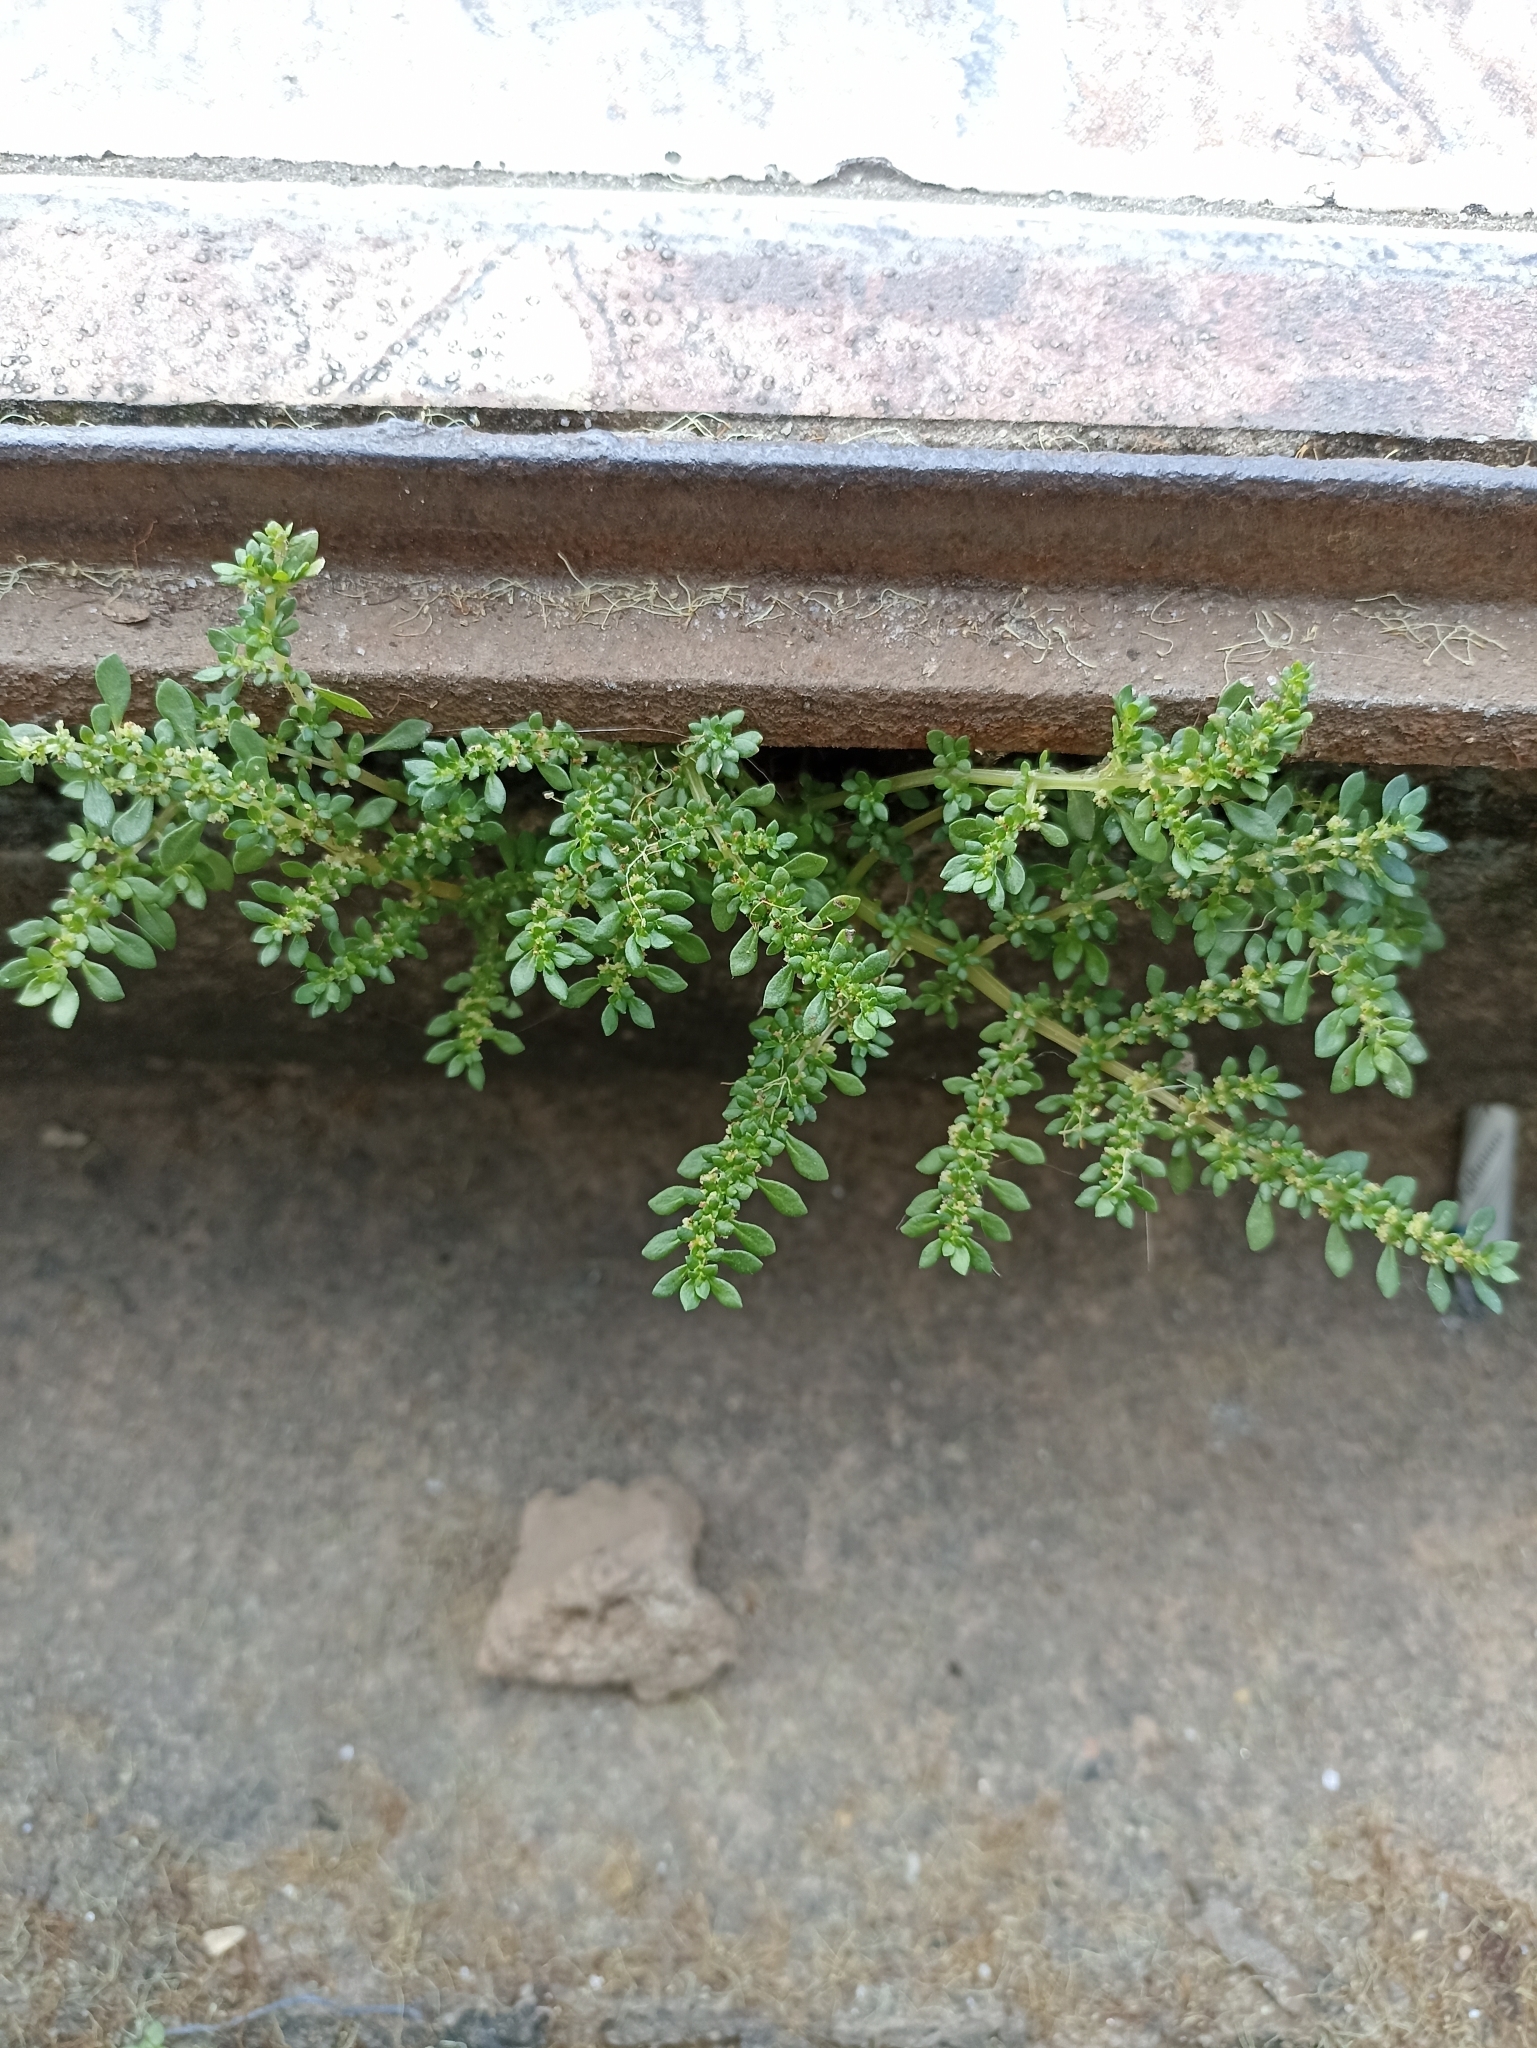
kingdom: Plantae
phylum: Tracheophyta
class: Magnoliopsida
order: Rosales
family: Urticaceae
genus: Pilea
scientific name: Pilea microphylla
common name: Artillery-plant
